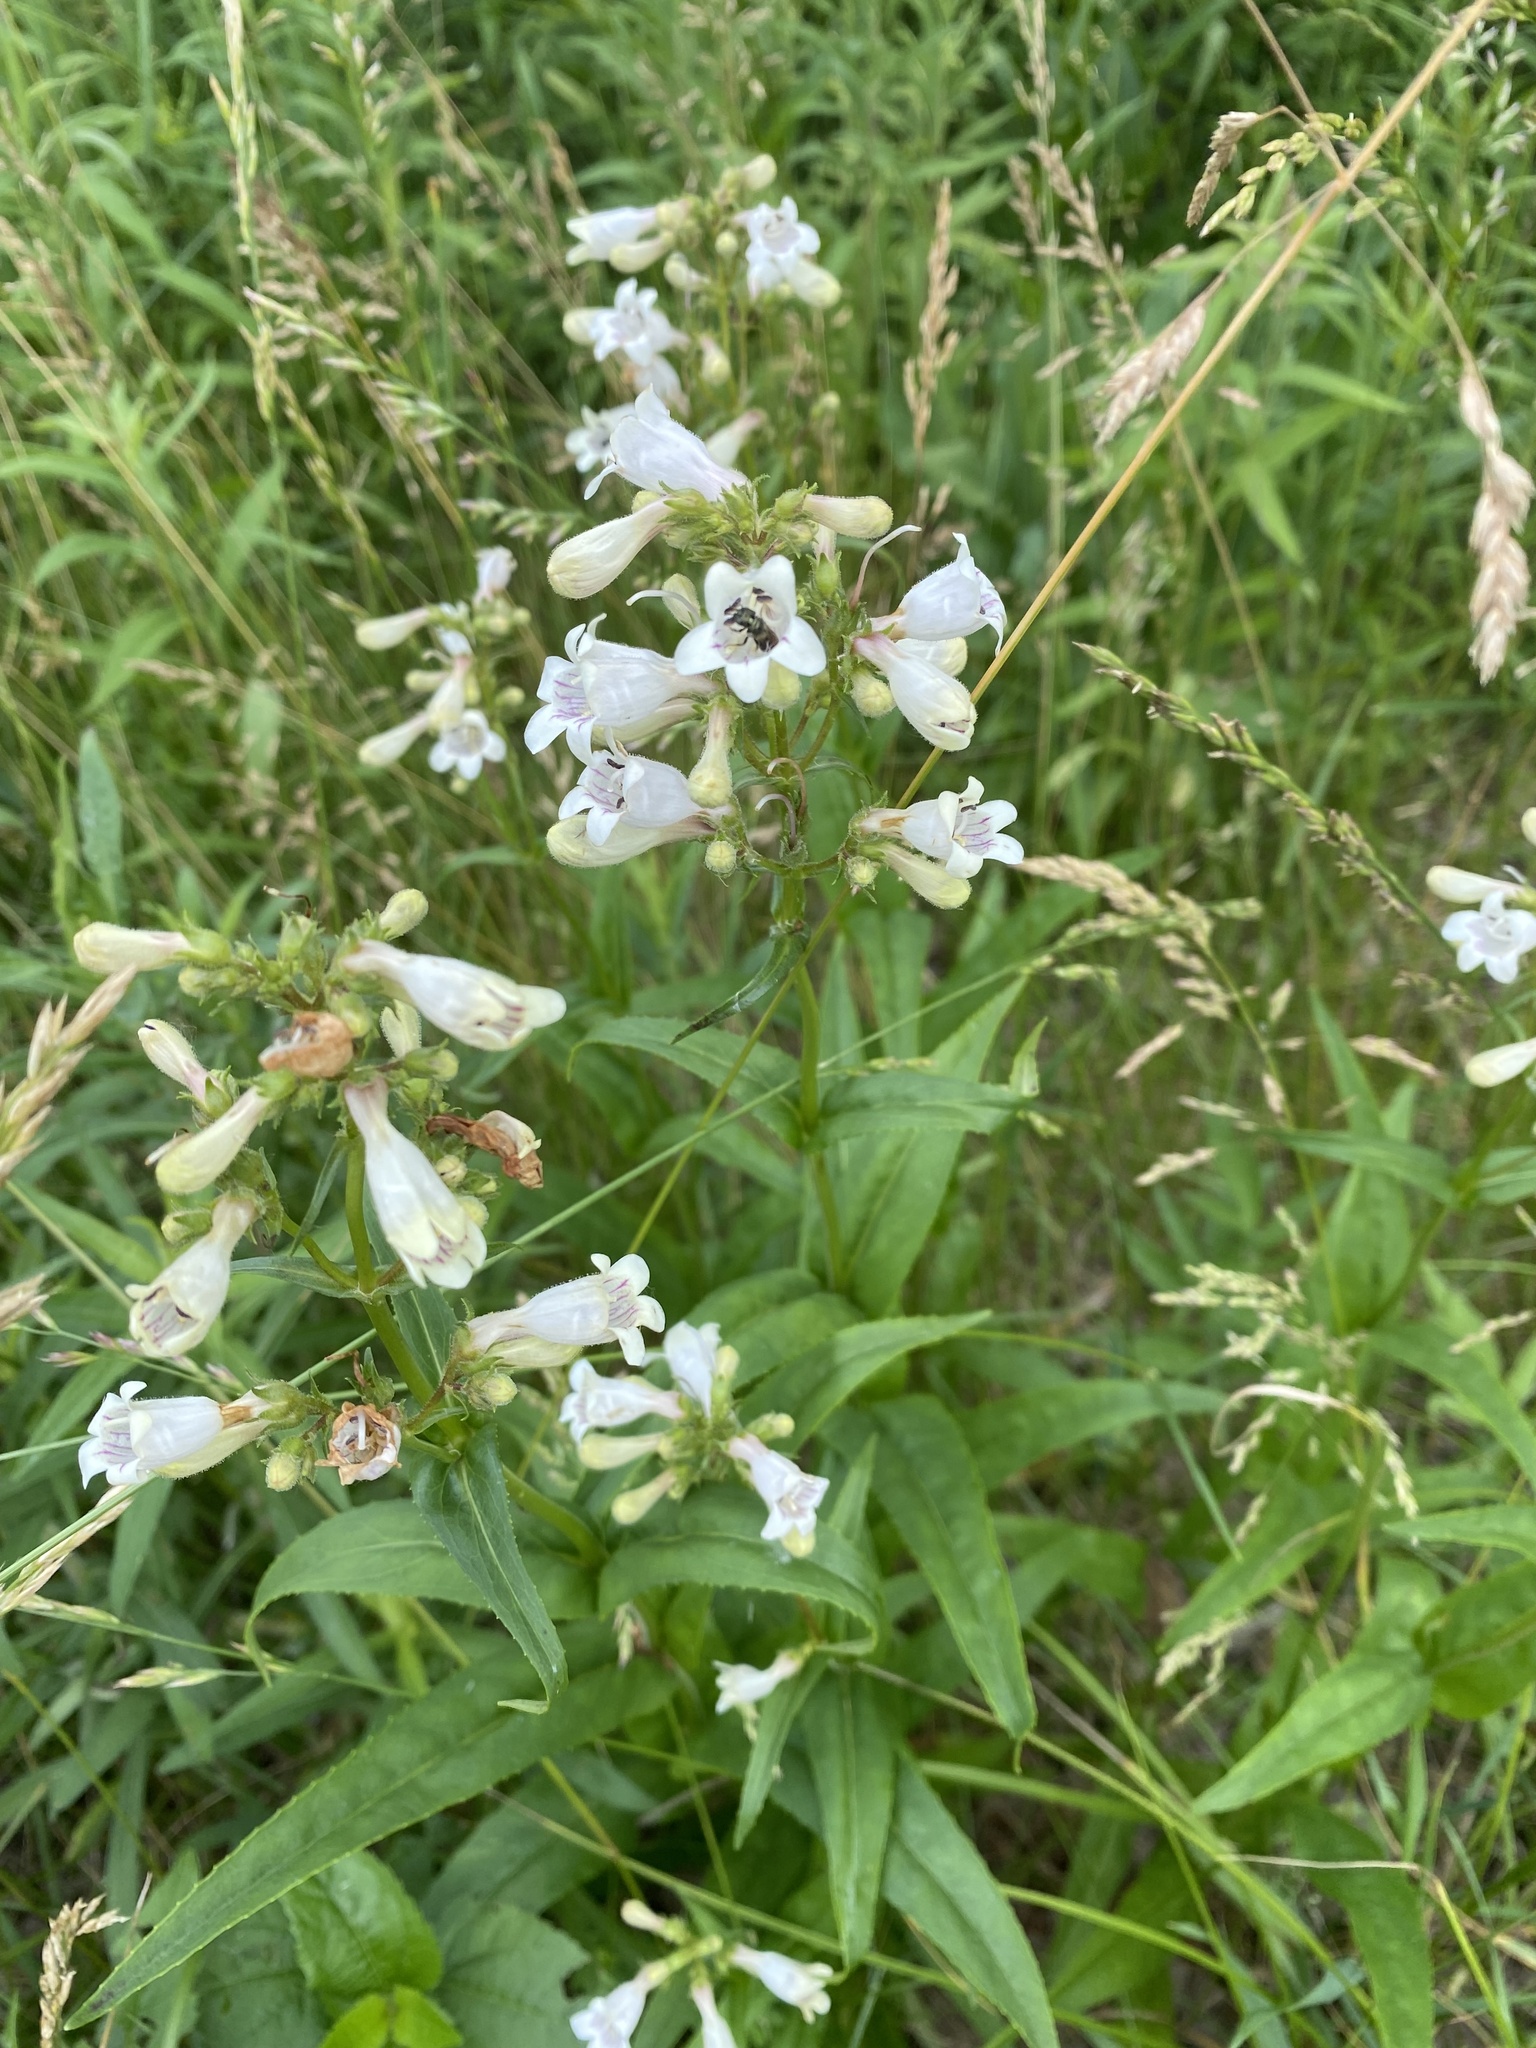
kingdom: Plantae
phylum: Tracheophyta
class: Magnoliopsida
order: Lamiales
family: Plantaginaceae
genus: Penstemon
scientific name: Penstemon digitalis
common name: Foxglove beardtongue
